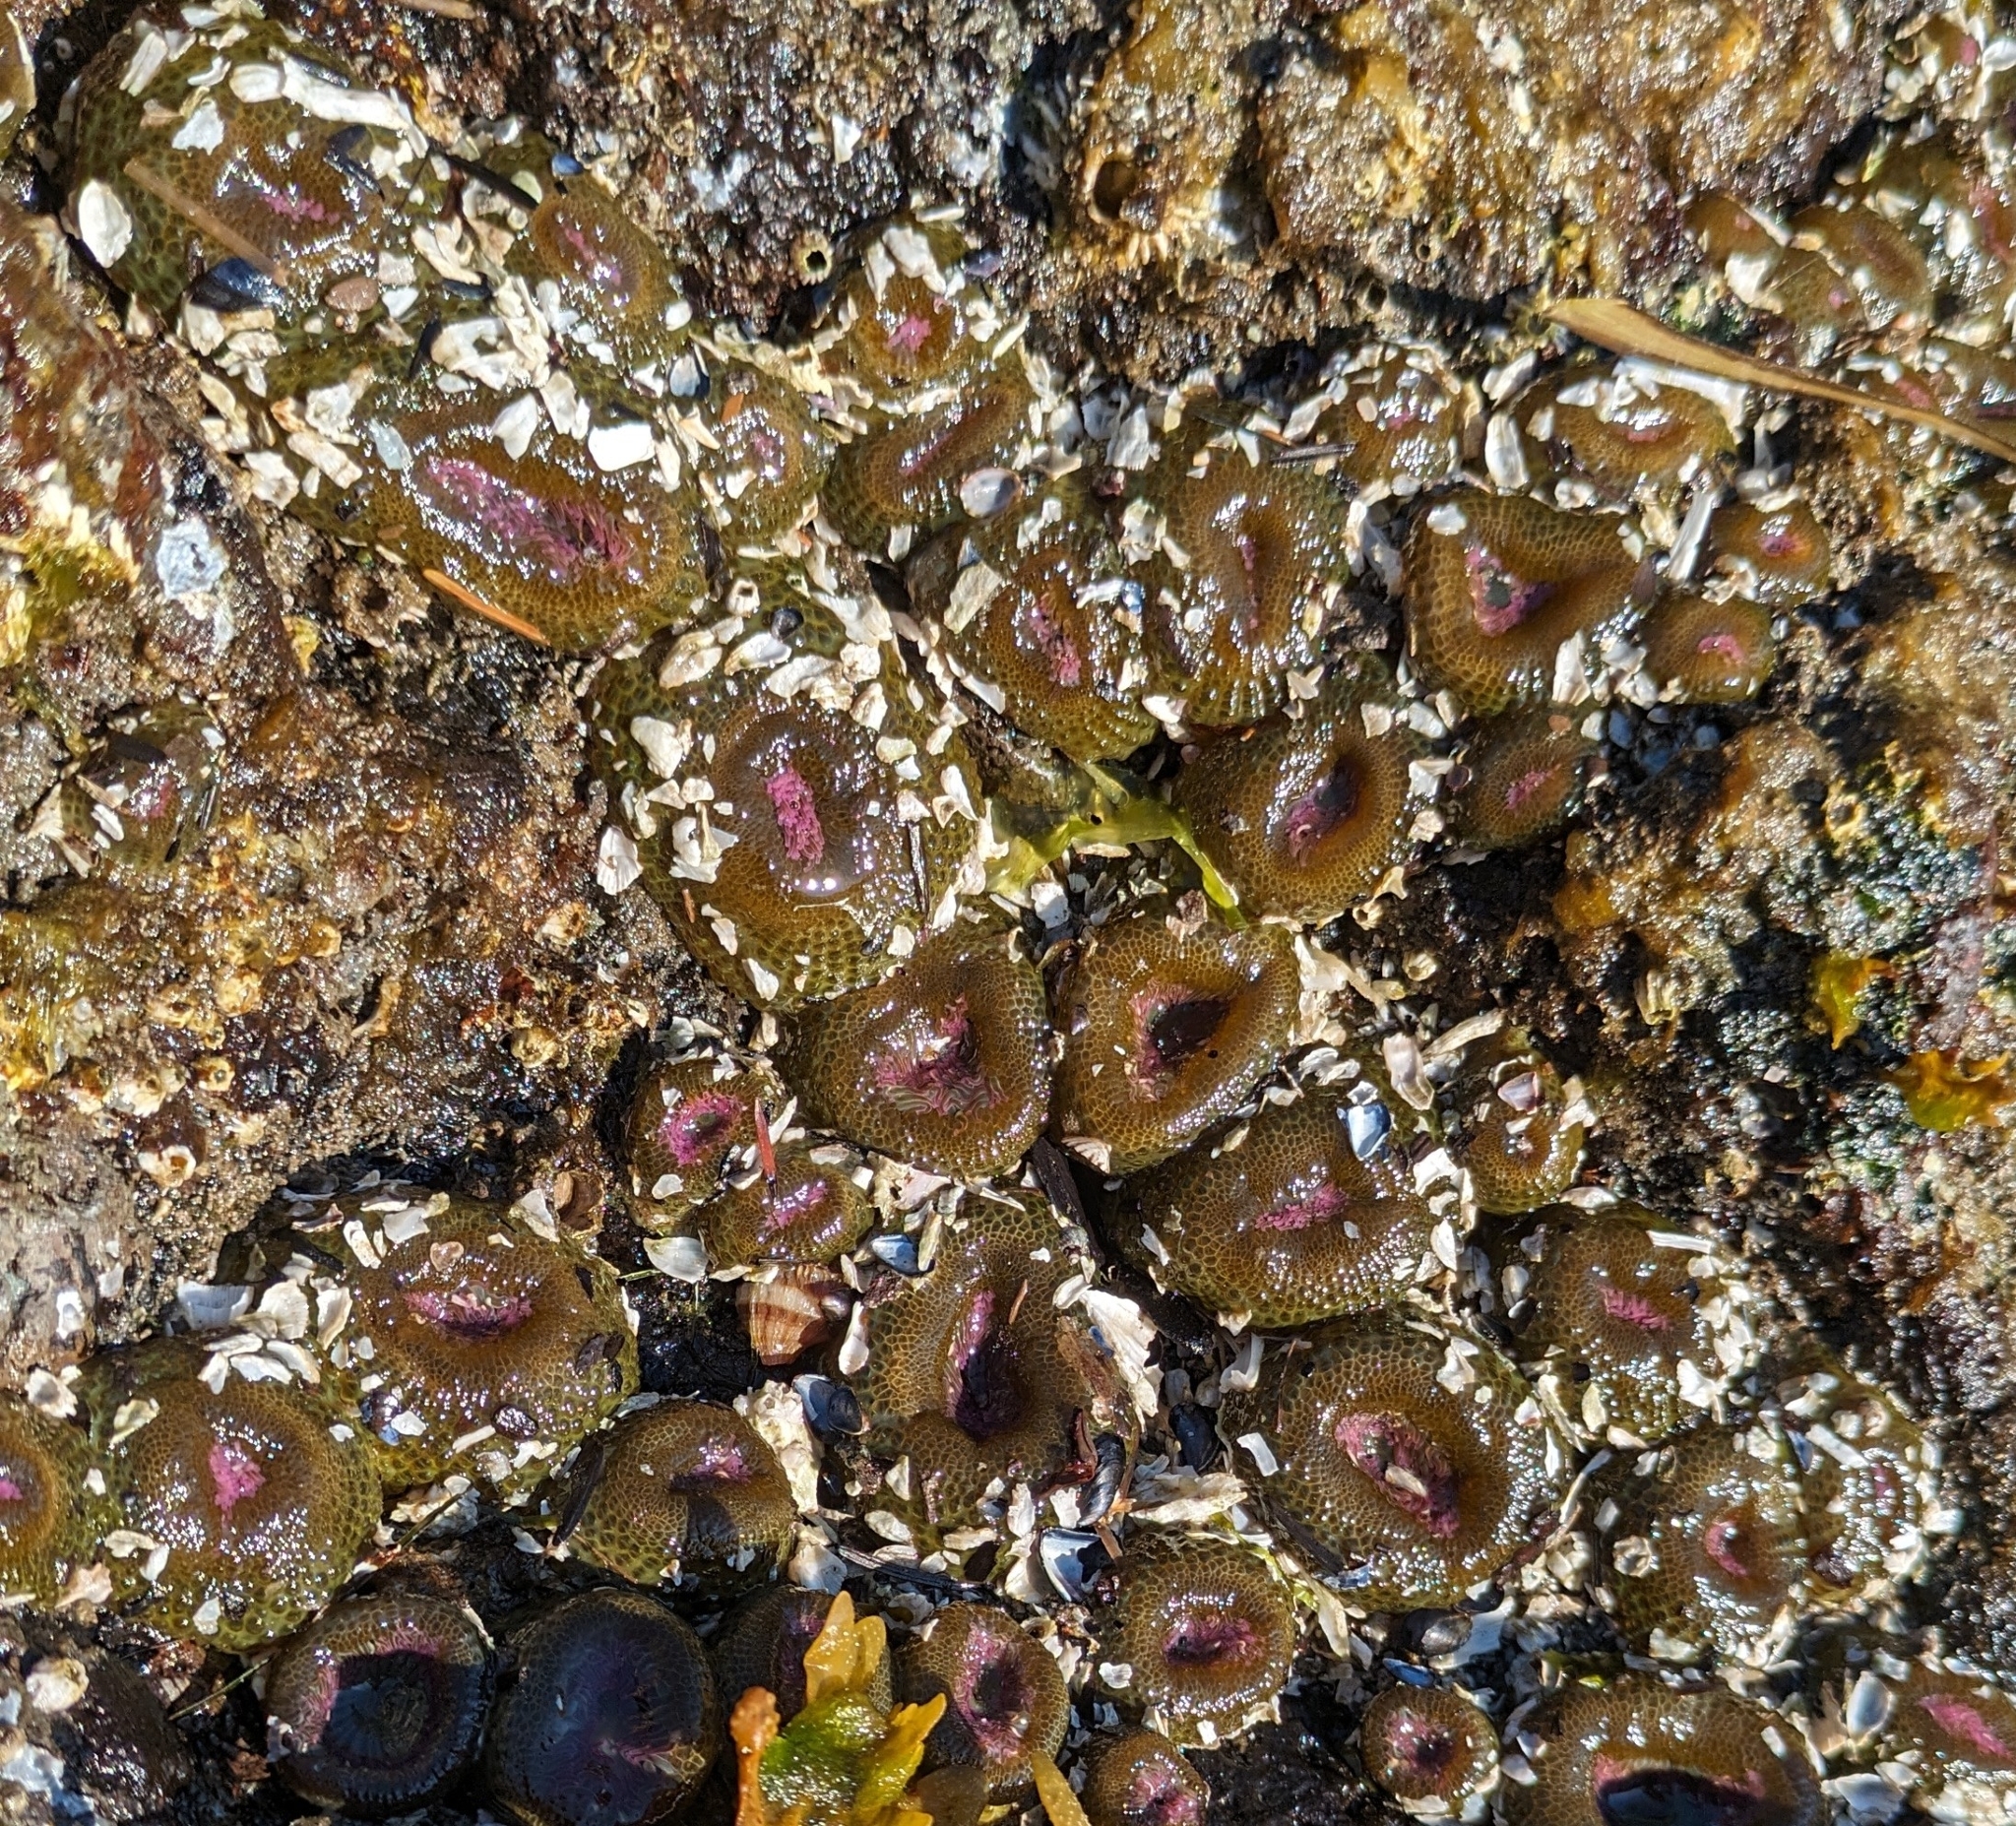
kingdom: Animalia
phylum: Cnidaria
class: Anthozoa
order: Actiniaria
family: Actiniidae
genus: Anthopleura
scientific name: Anthopleura elegantissima
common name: Clonal anemone
